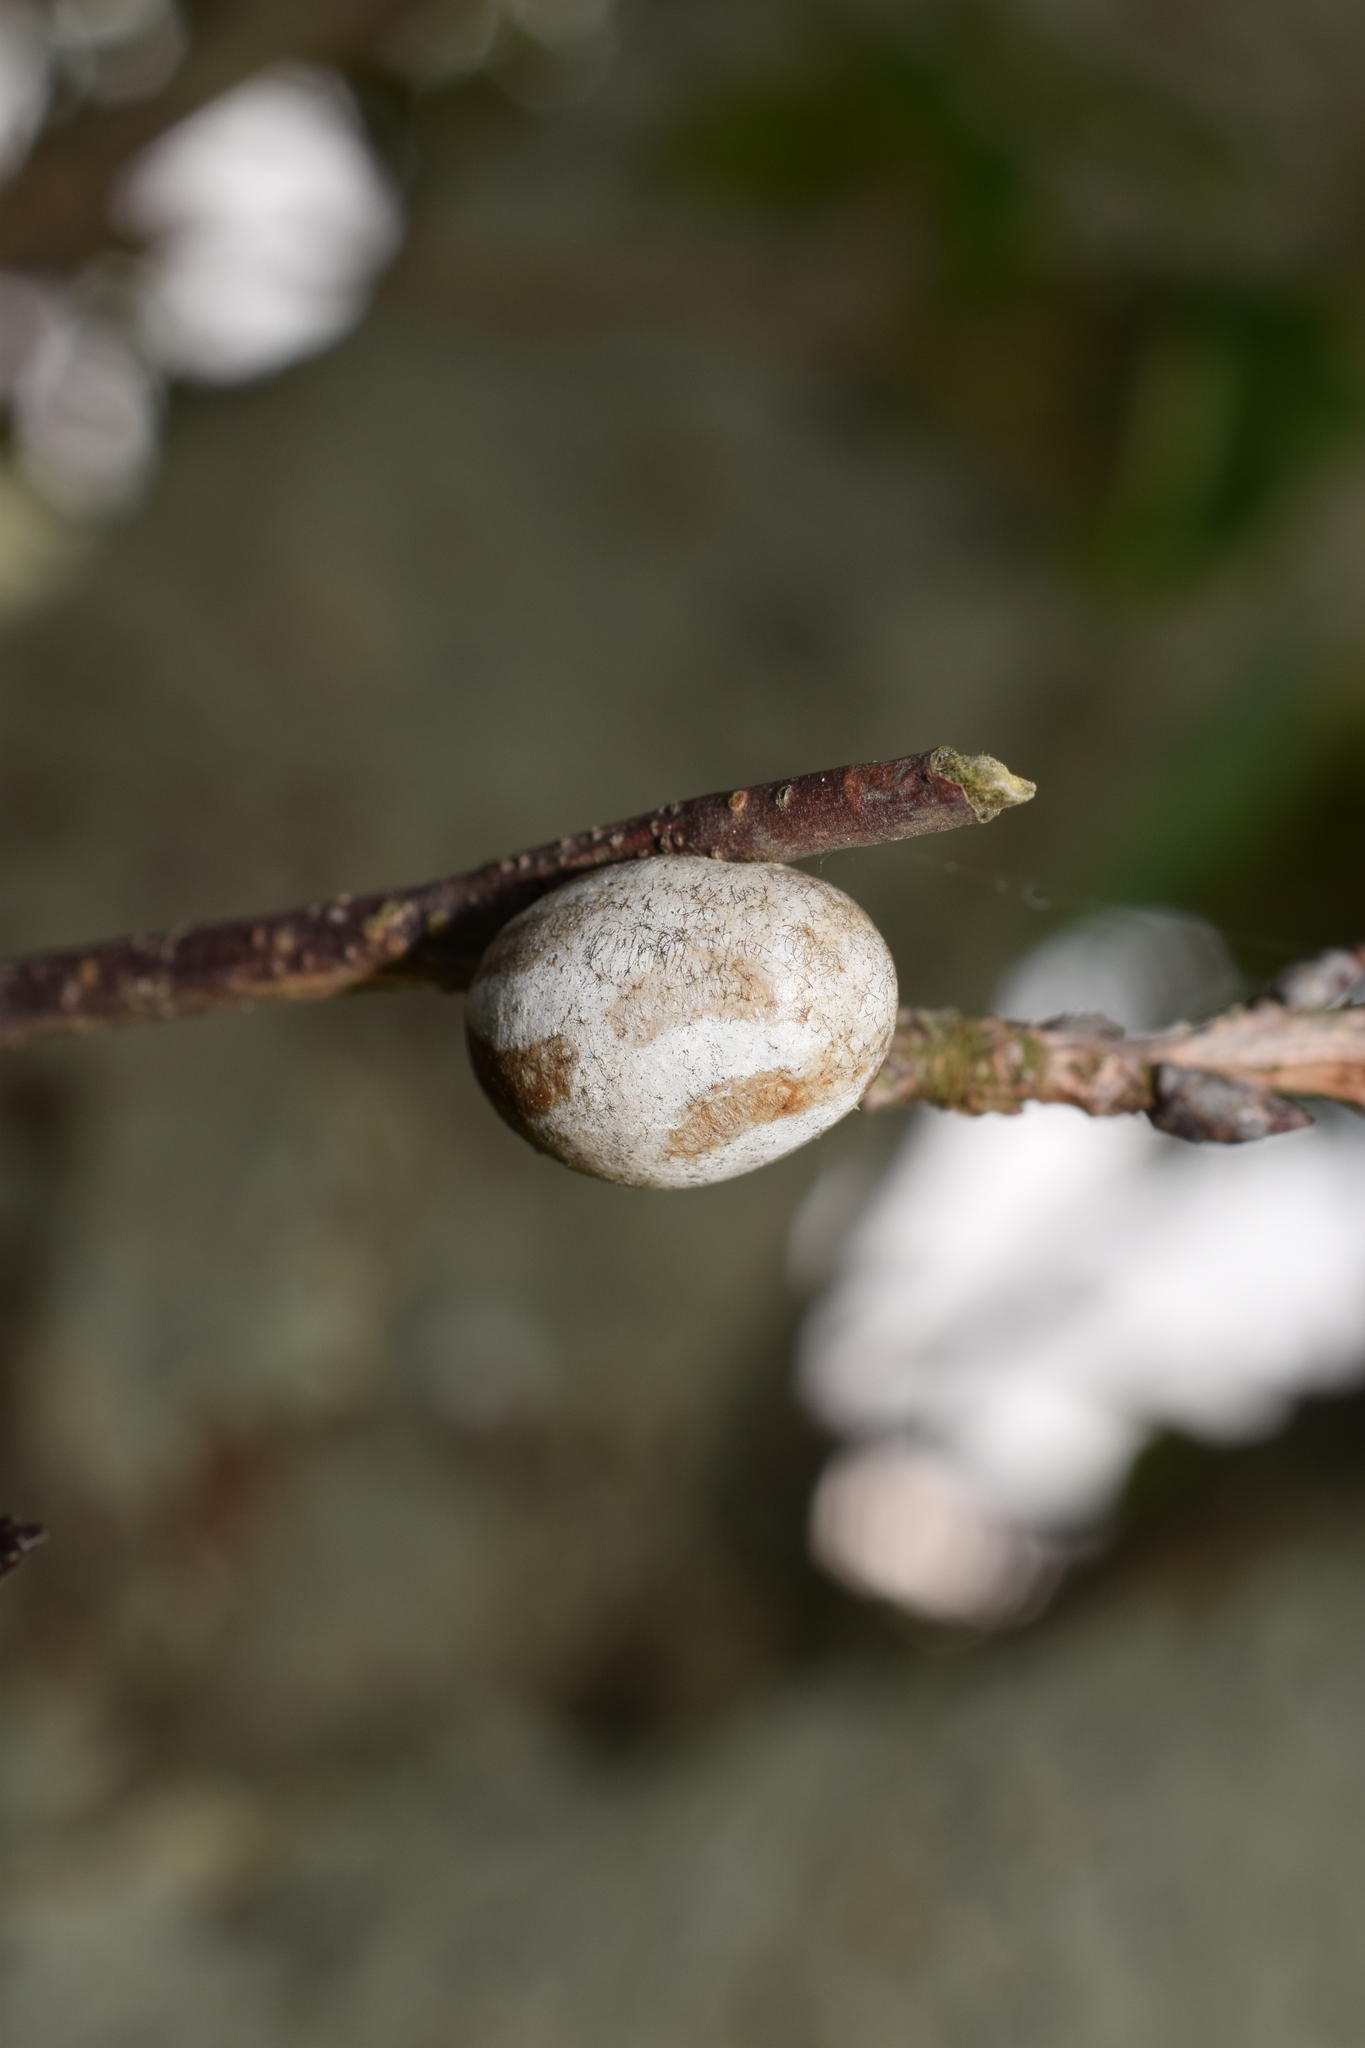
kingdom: Animalia
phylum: Arthropoda
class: Insecta
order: Lepidoptera
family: Limacodidae
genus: Monema
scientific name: Monema flavescens
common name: Oriental moth
